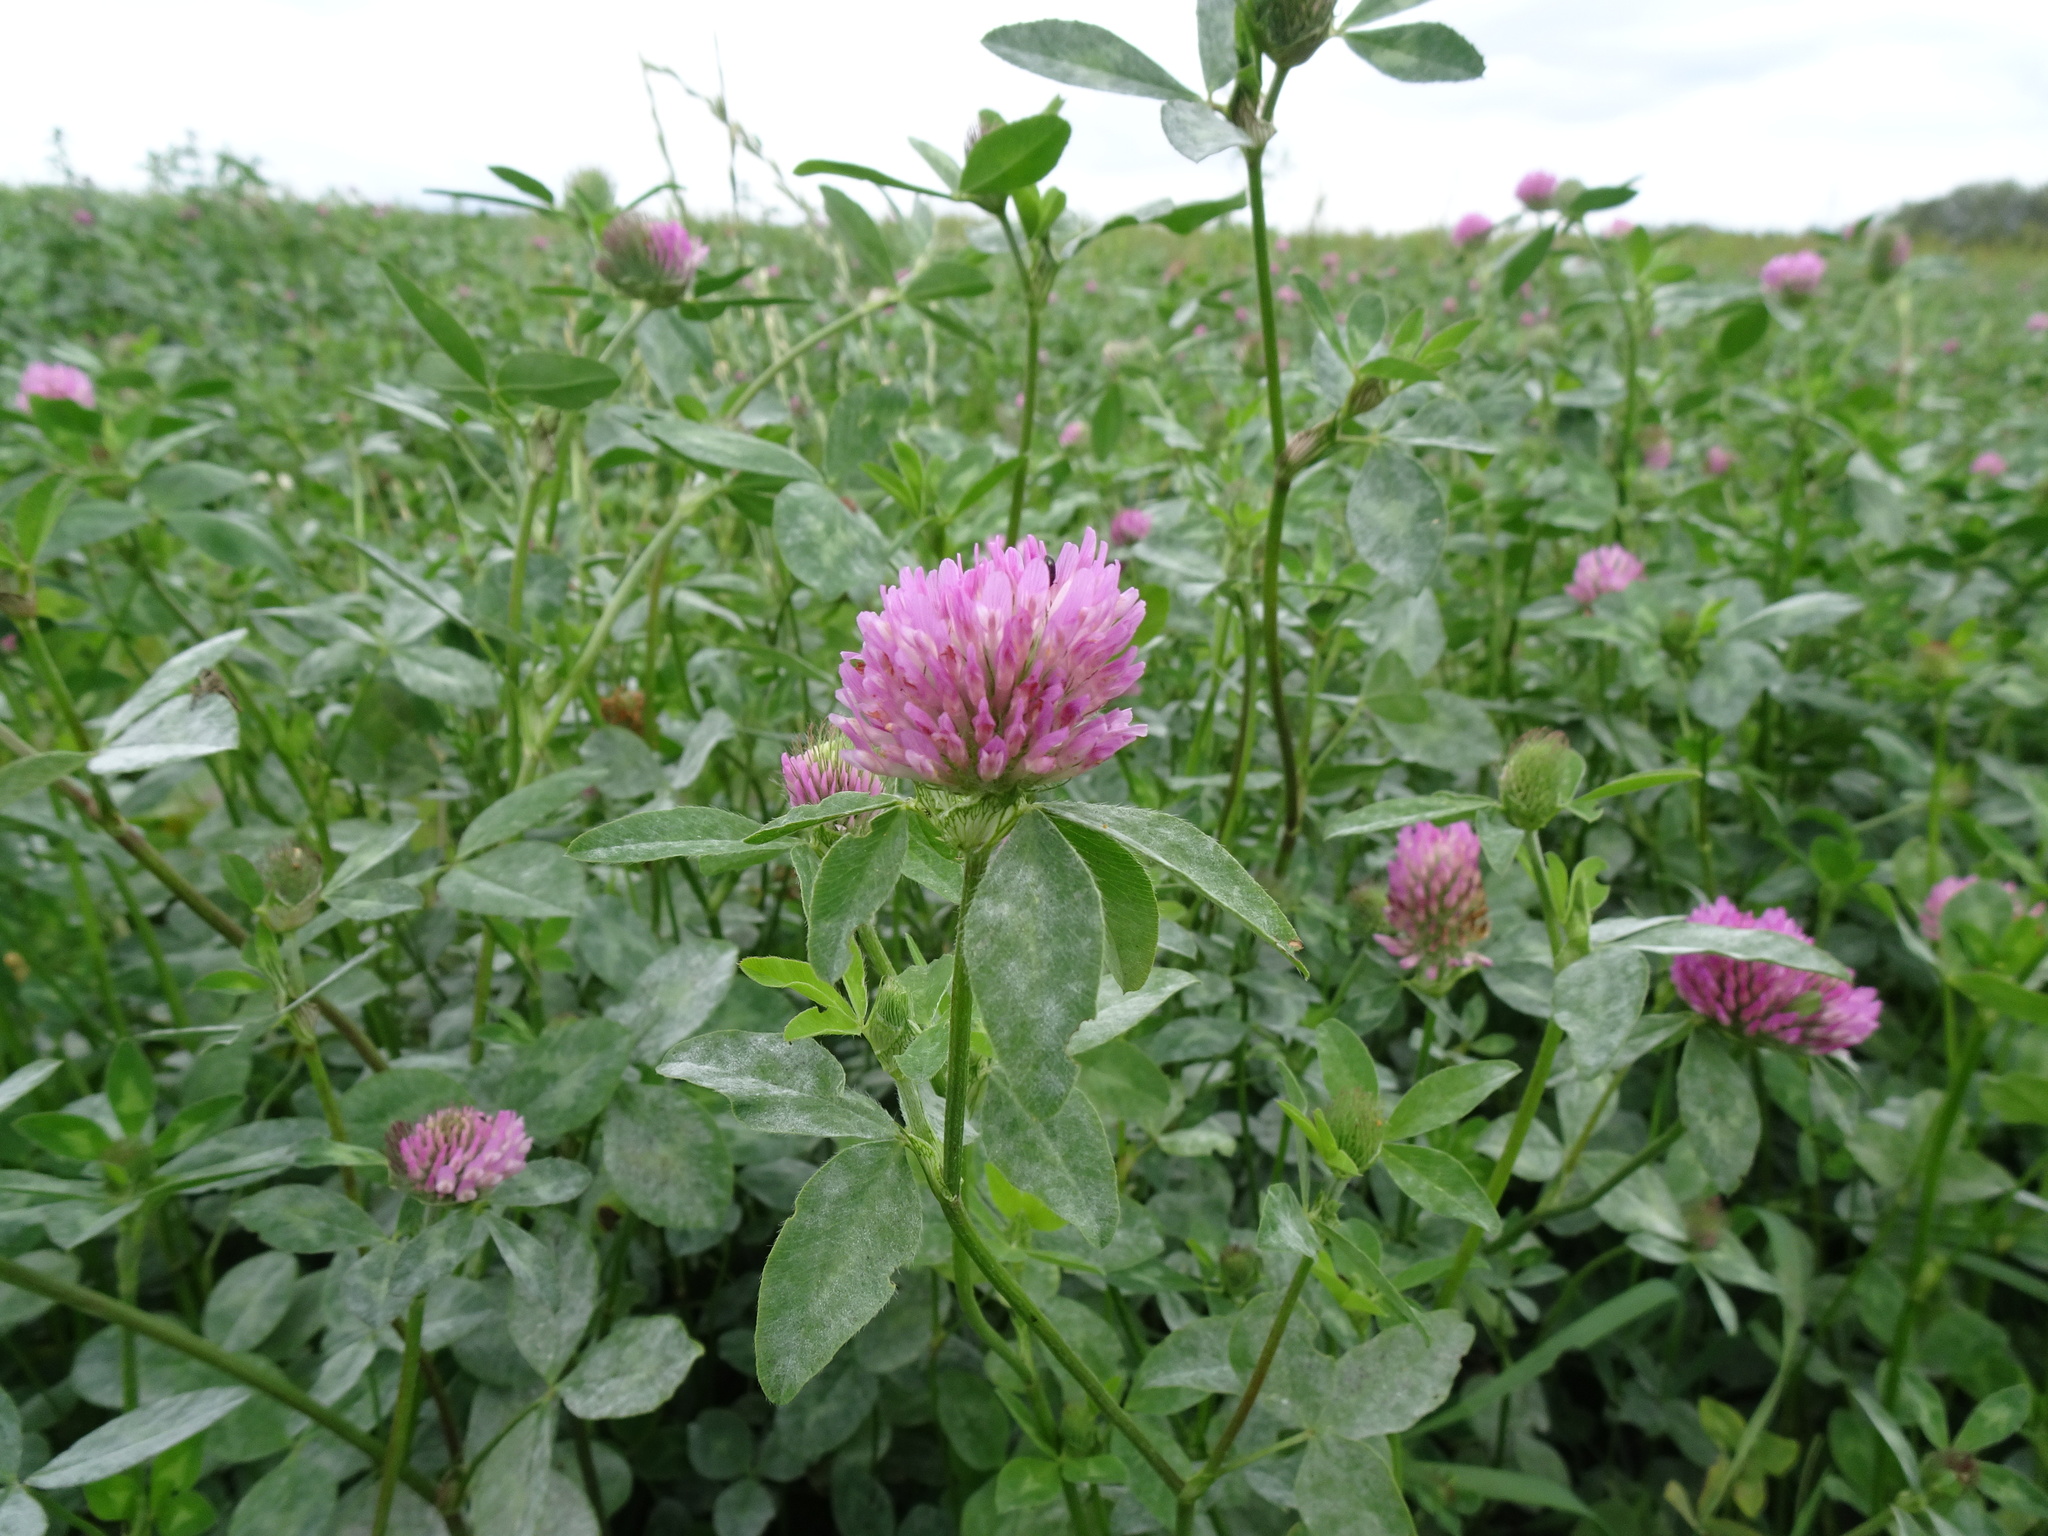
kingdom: Plantae
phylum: Tracheophyta
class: Magnoliopsida
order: Fabales
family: Fabaceae
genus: Trifolium
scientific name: Trifolium pratense
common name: Red clover
